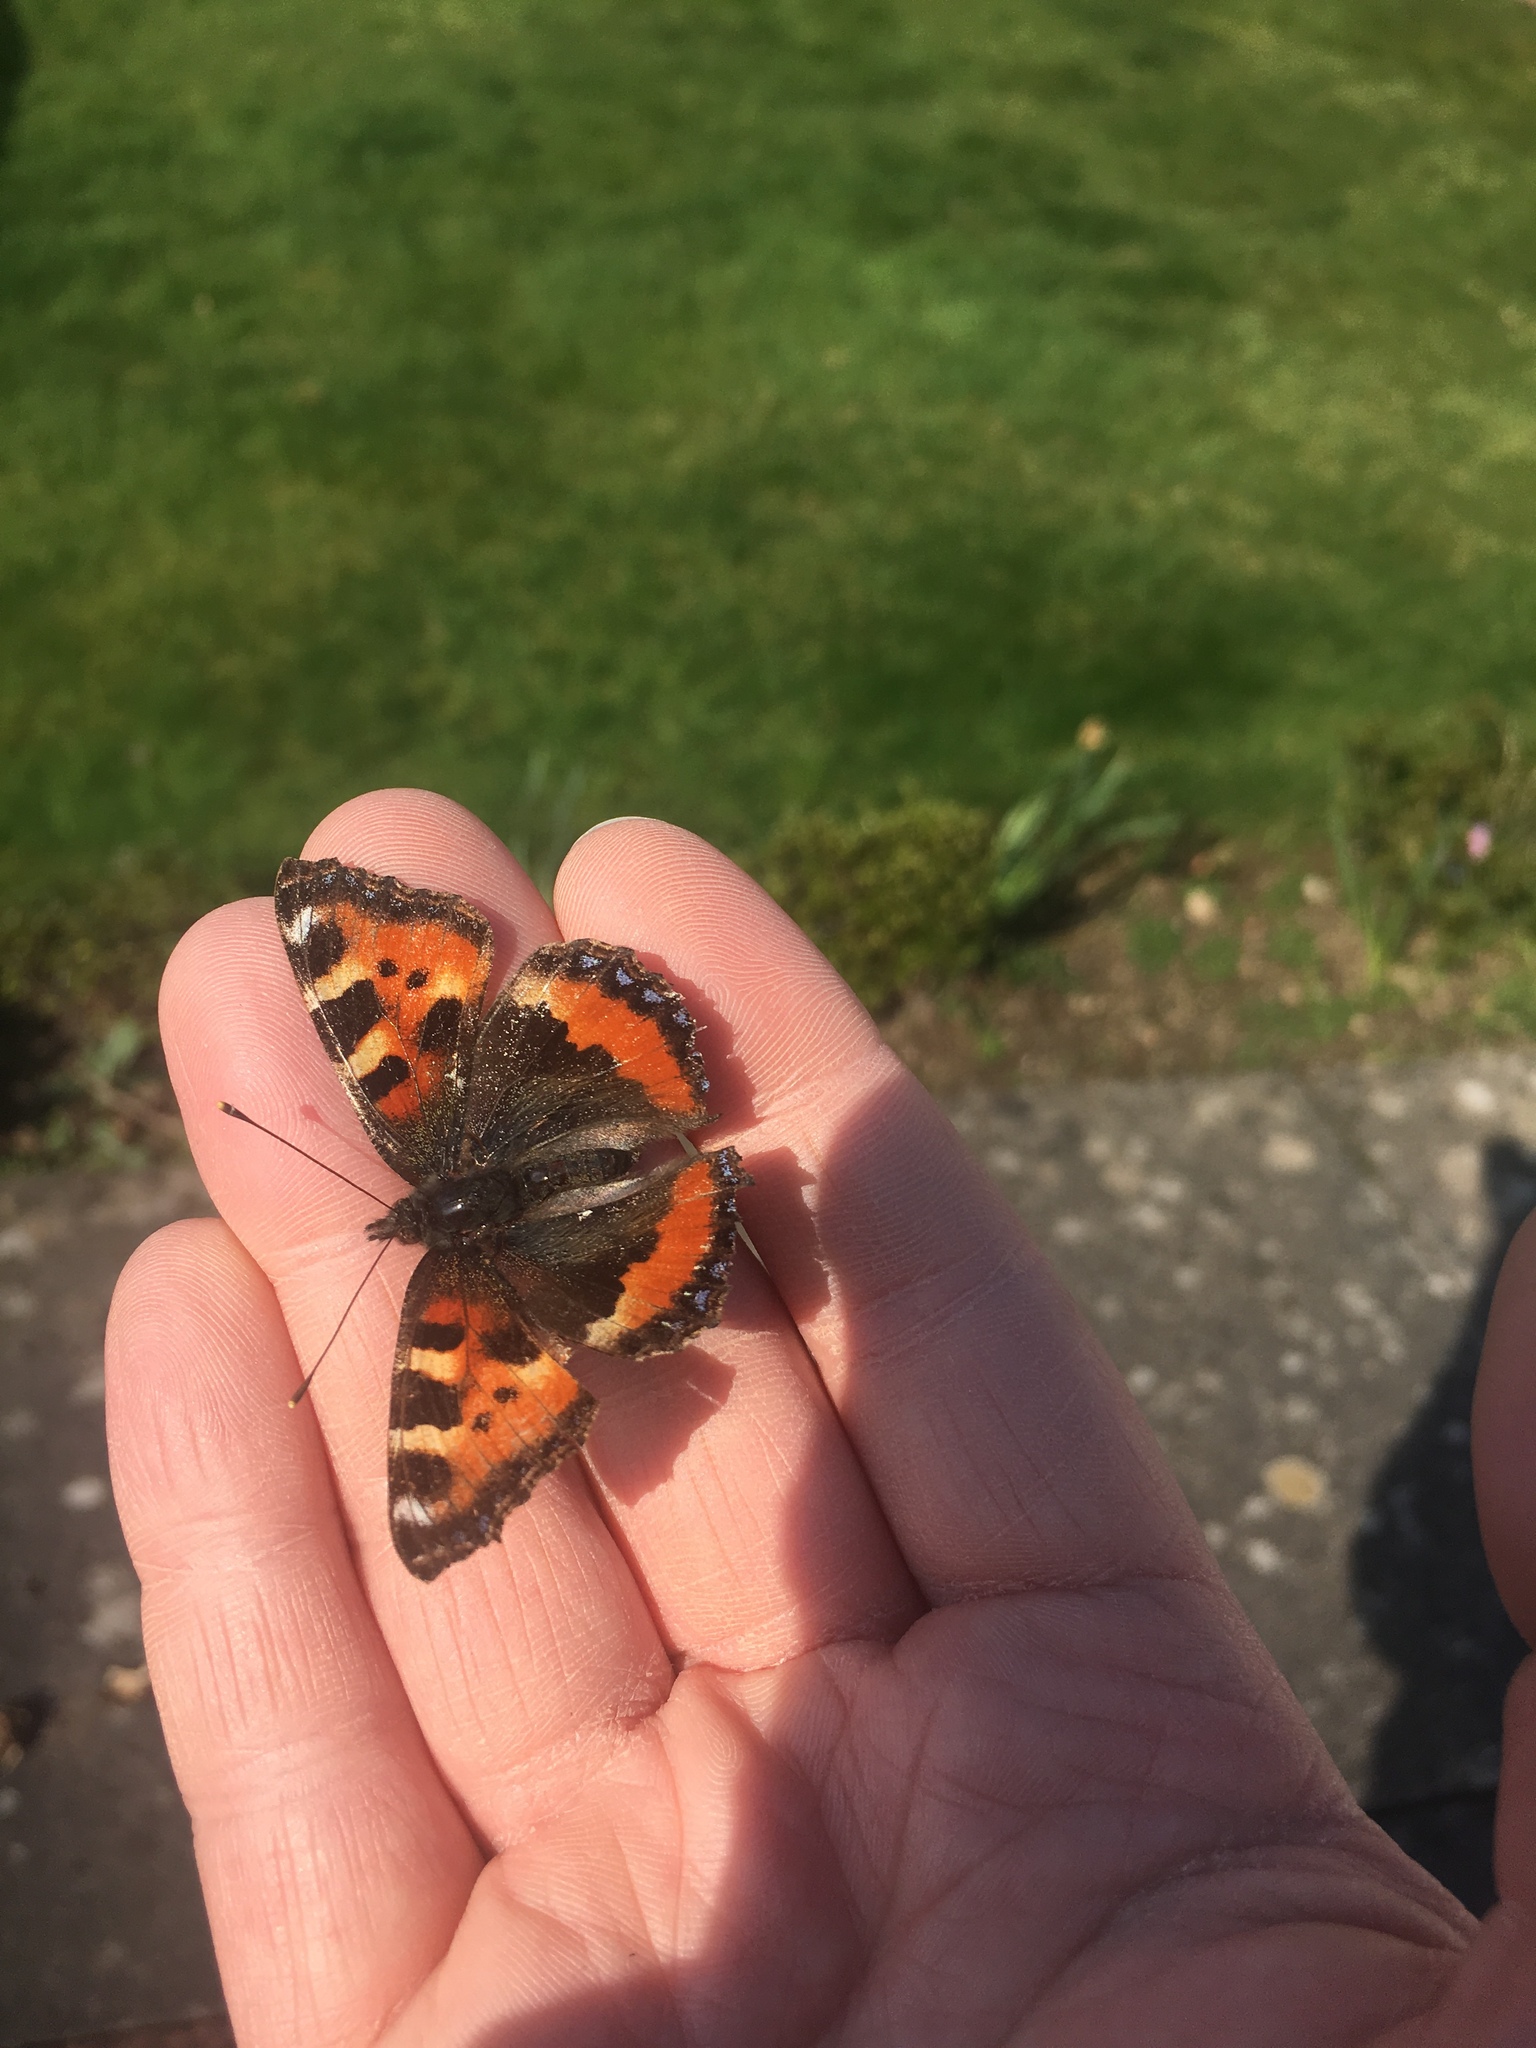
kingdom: Animalia
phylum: Arthropoda
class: Insecta
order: Lepidoptera
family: Nymphalidae
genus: Aglais
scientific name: Aglais urticae
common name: Small tortoiseshell
